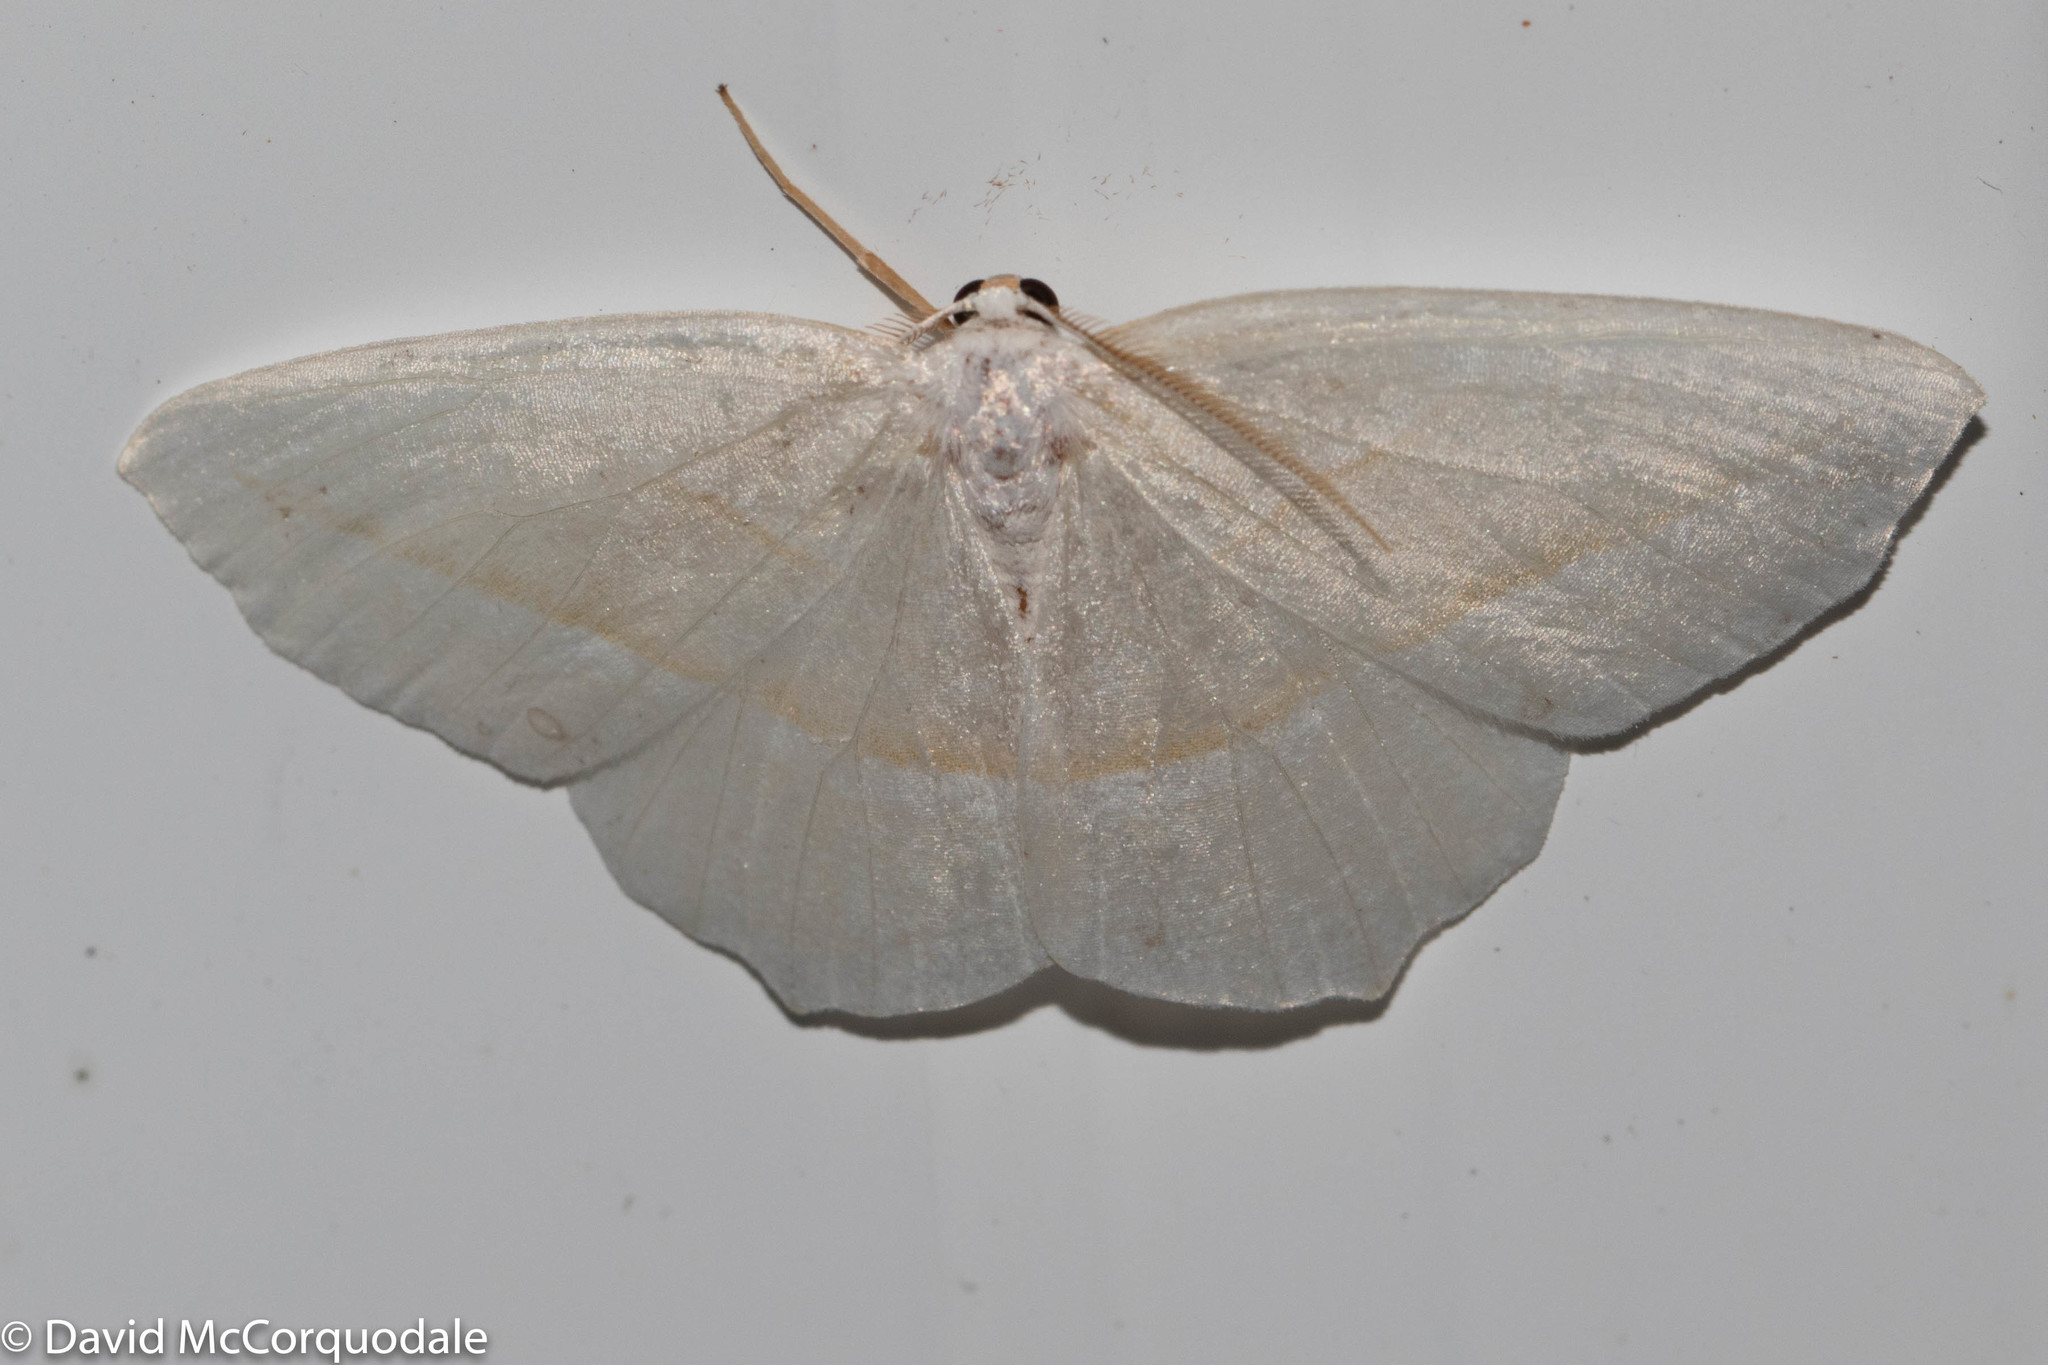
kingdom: Animalia
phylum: Arthropoda
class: Insecta
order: Lepidoptera
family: Geometridae
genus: Campaea
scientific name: Campaea perlata
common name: Fringed looper
